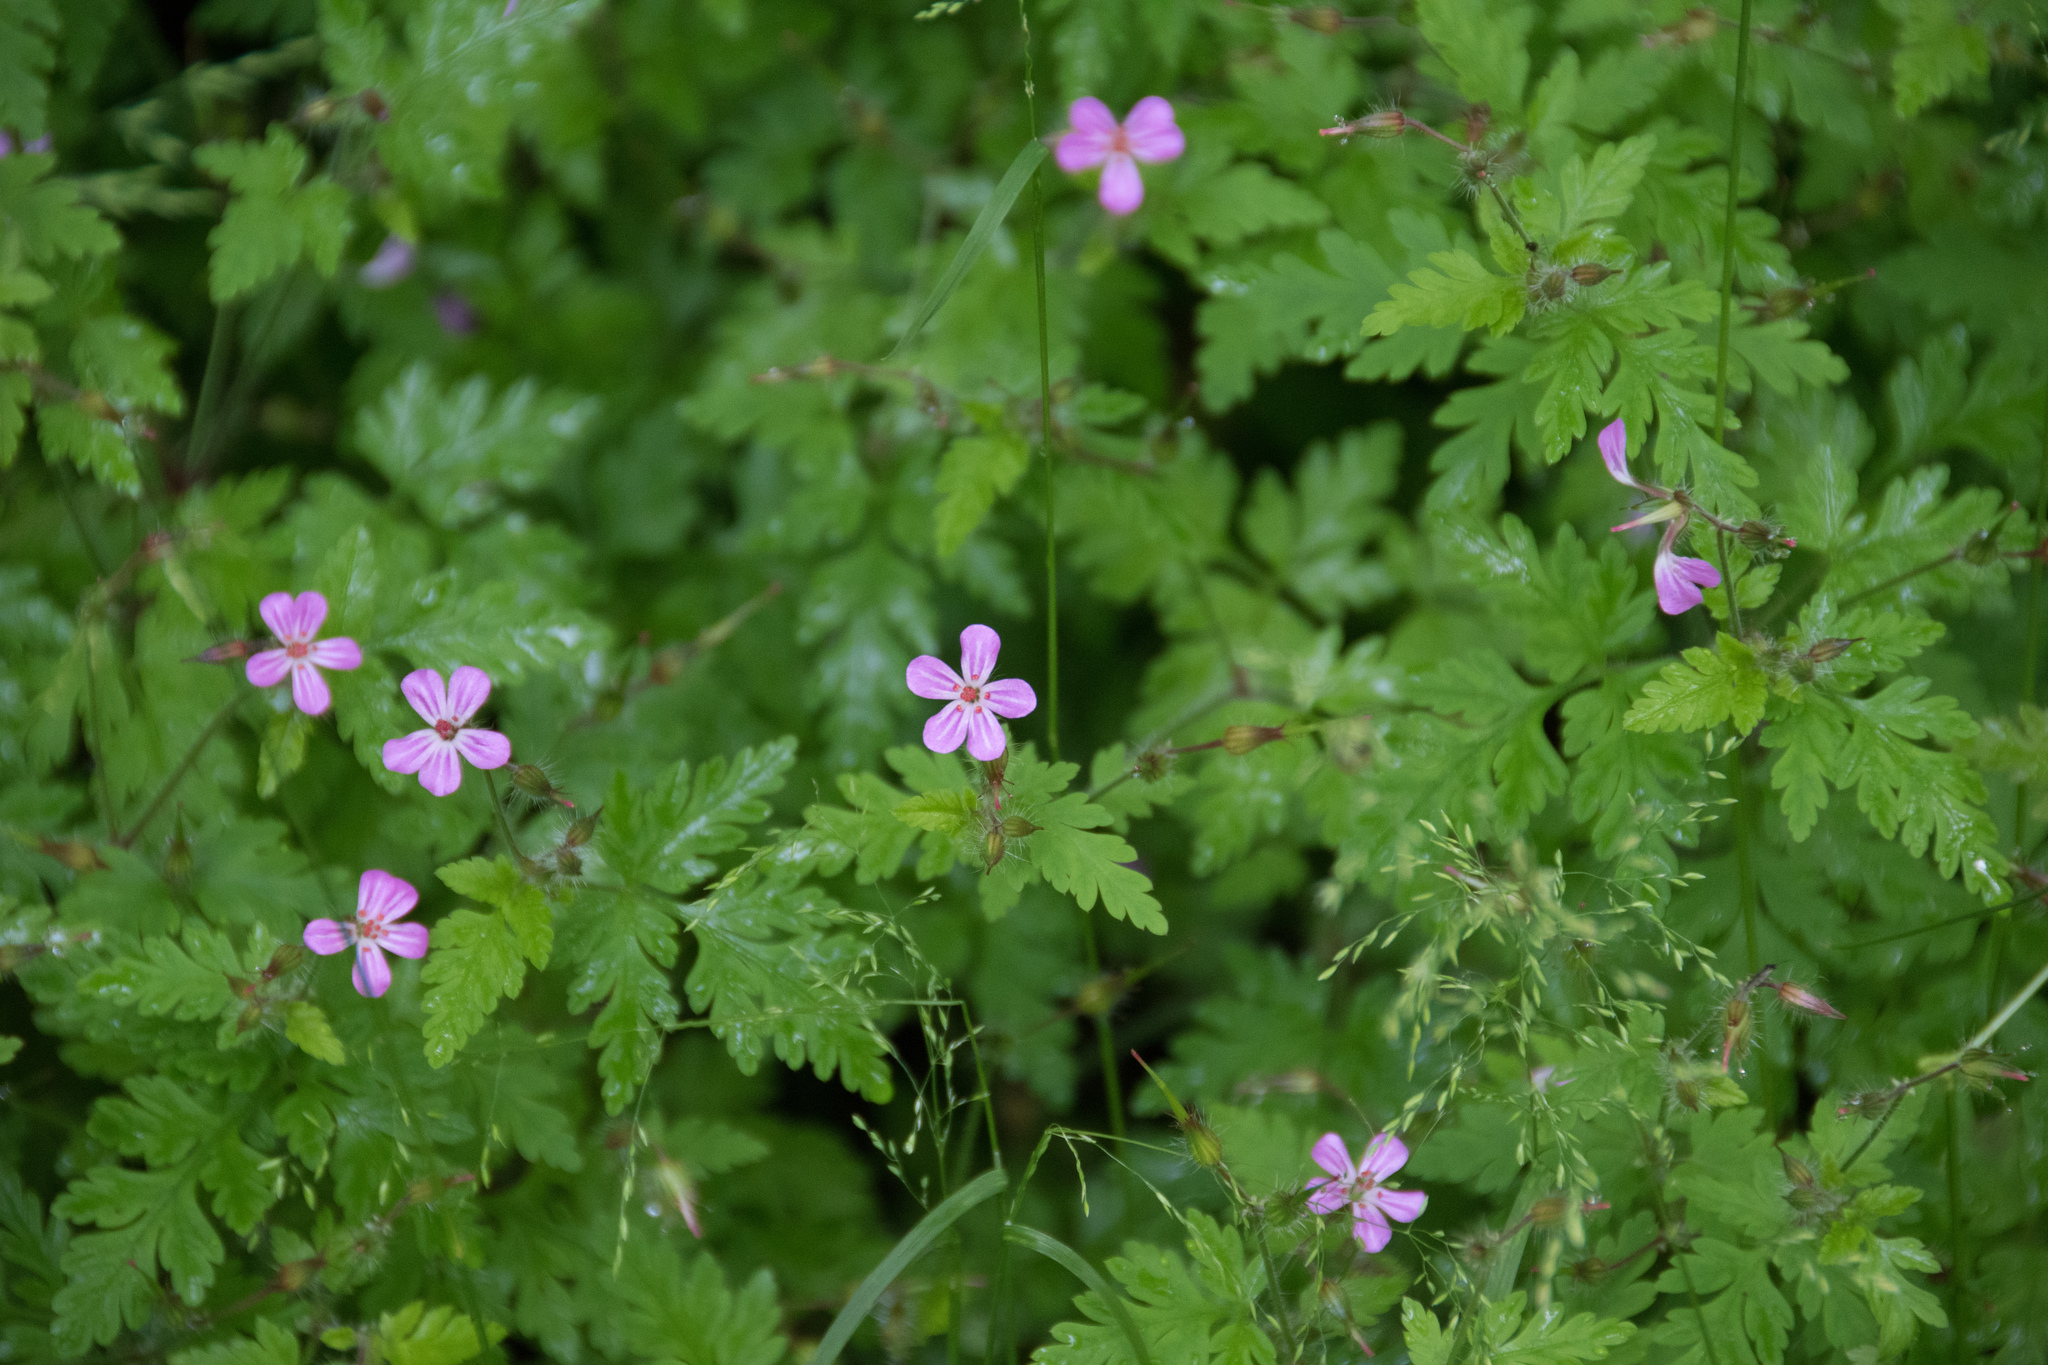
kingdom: Plantae
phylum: Tracheophyta
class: Magnoliopsida
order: Geraniales
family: Geraniaceae
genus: Geranium
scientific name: Geranium robertianum
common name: Herb-robert
